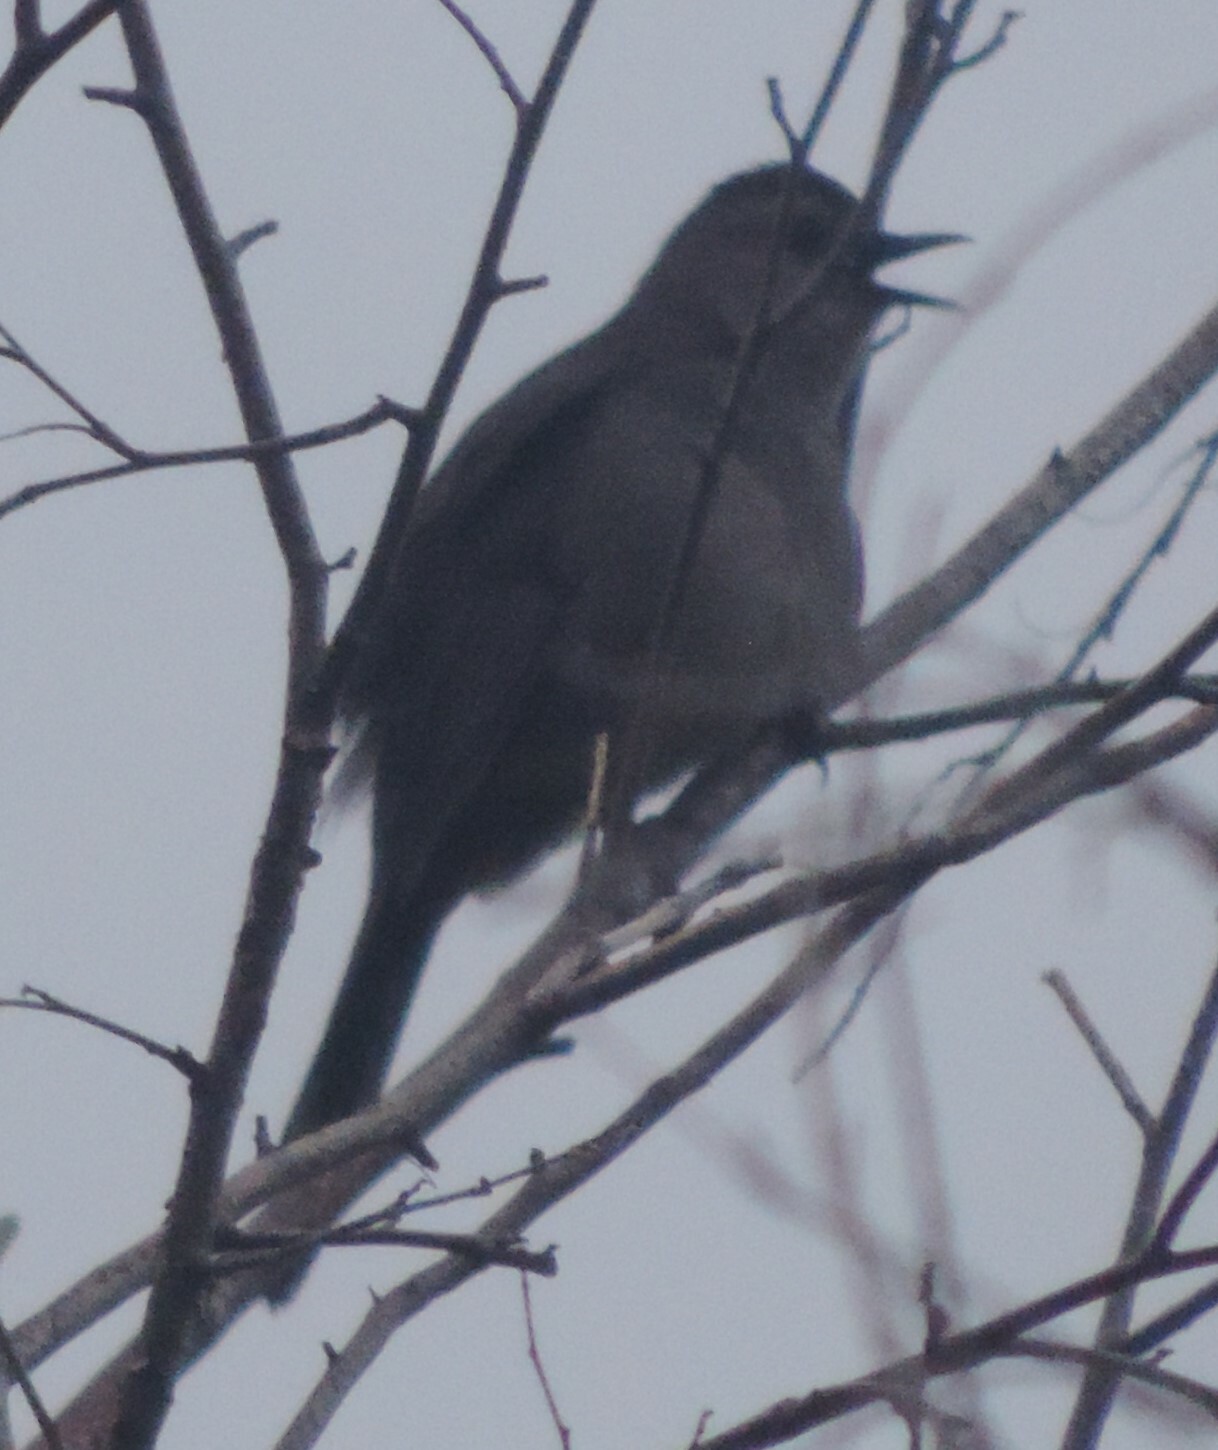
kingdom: Animalia
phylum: Chordata
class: Aves
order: Passeriformes
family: Mimidae
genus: Dumetella
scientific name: Dumetella carolinensis
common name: Gray catbird
